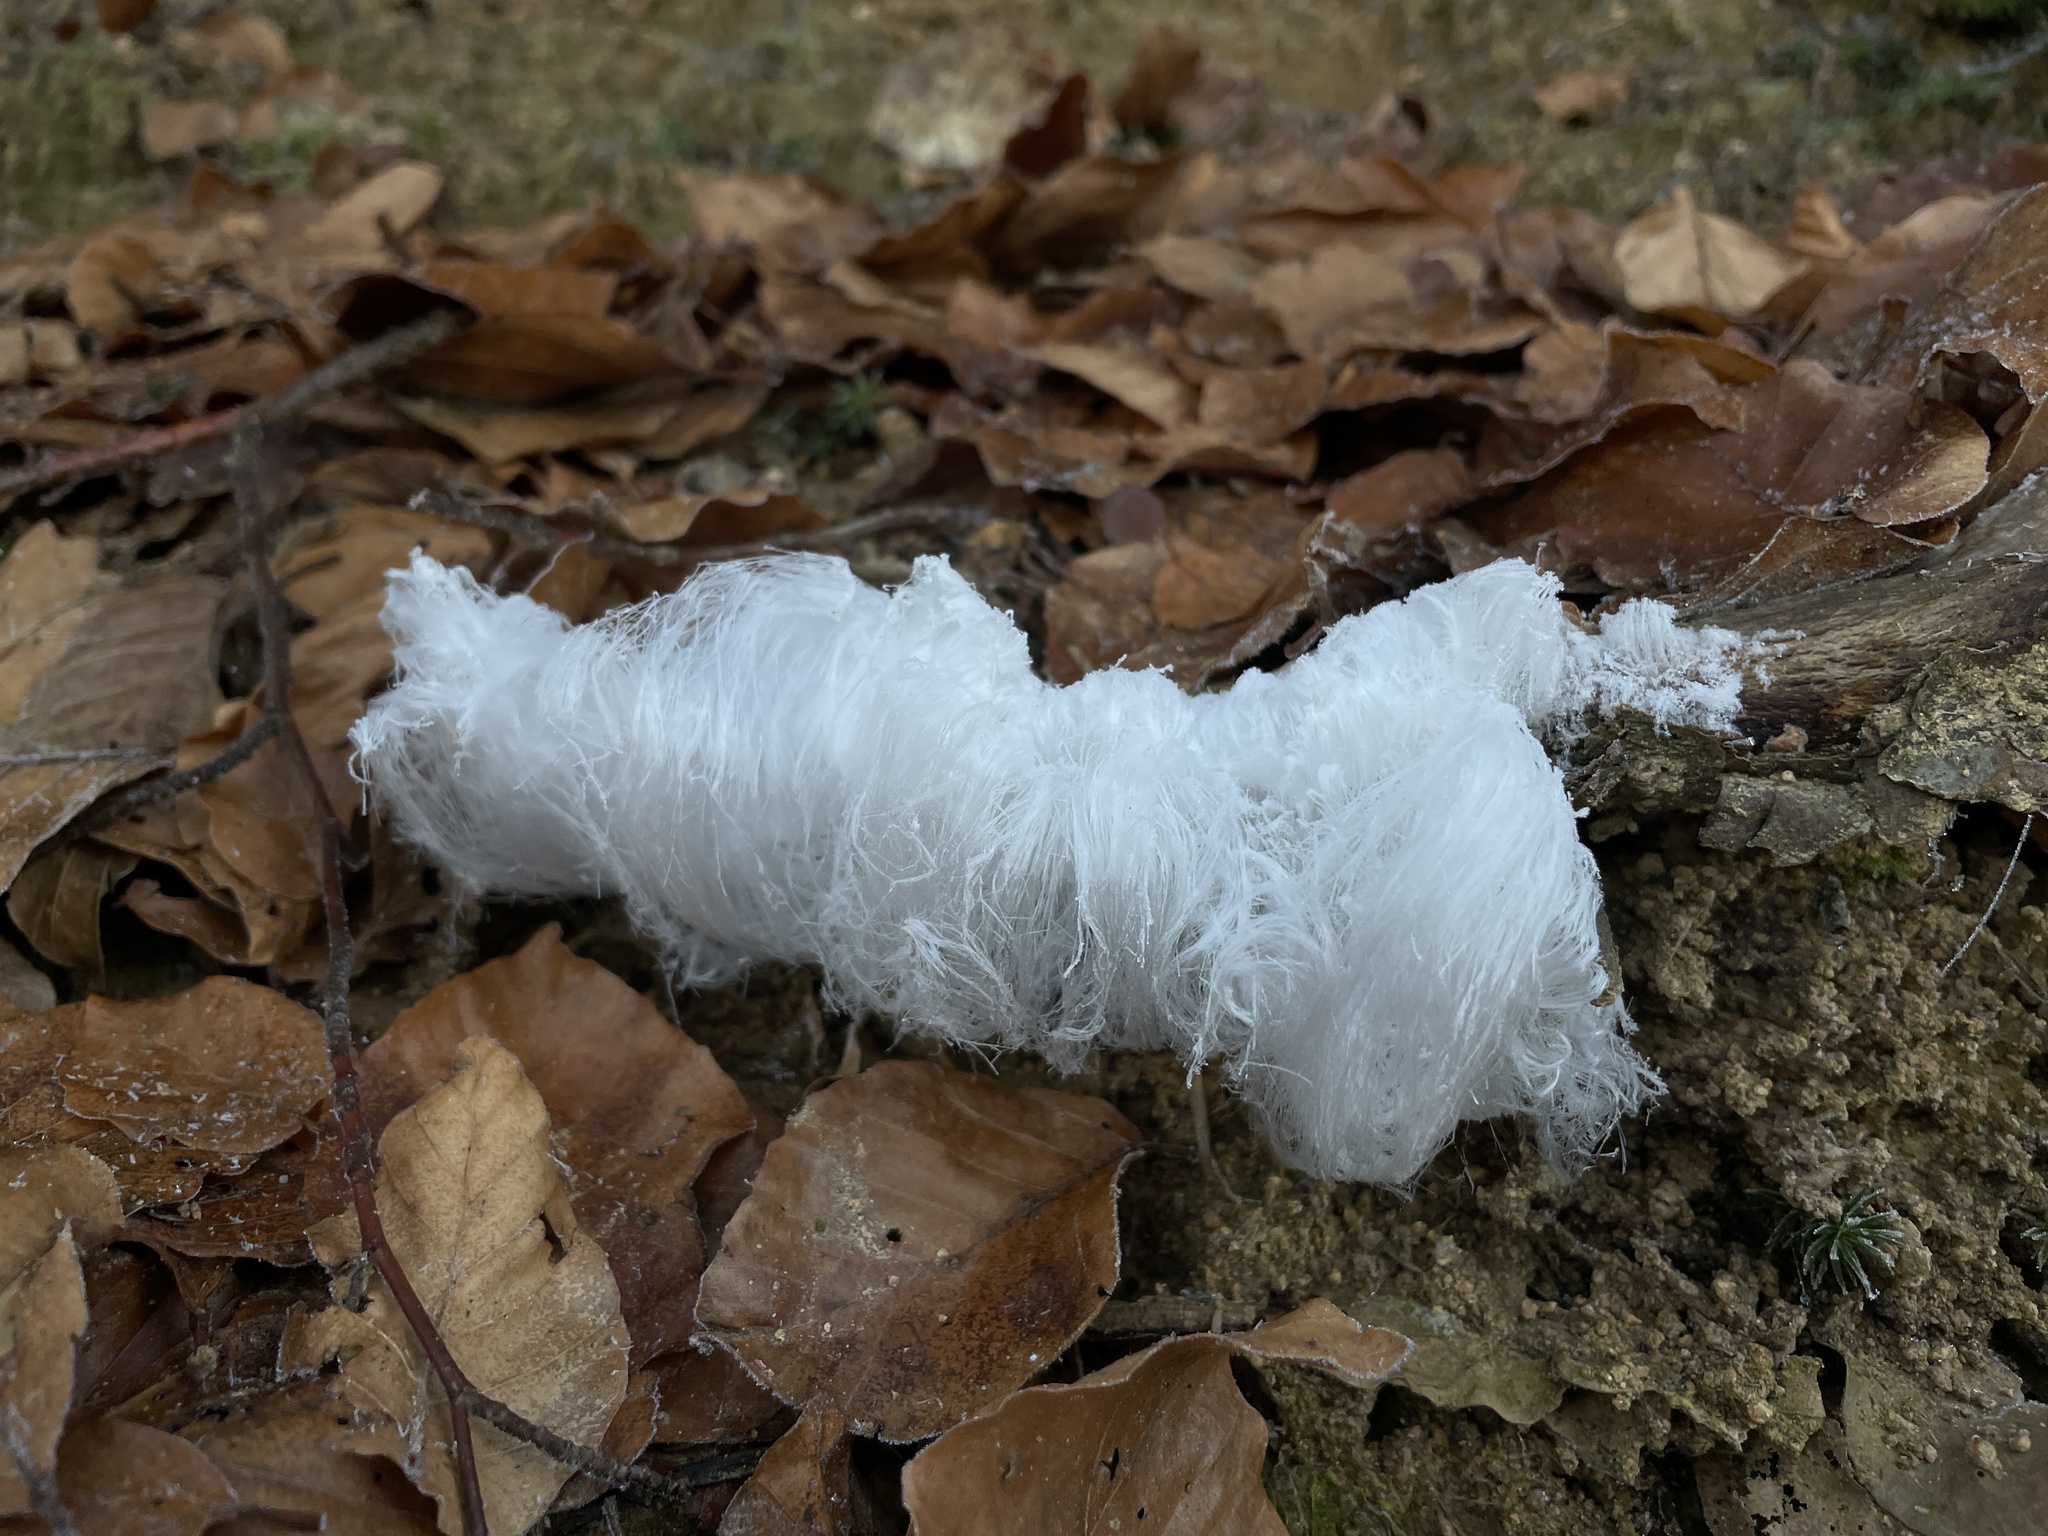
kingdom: Fungi
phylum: Basidiomycota
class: Agaricomycetes
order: Auriculariales
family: Auriculariaceae
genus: Exidiopsis
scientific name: Exidiopsis effusa
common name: Hair ice crust
